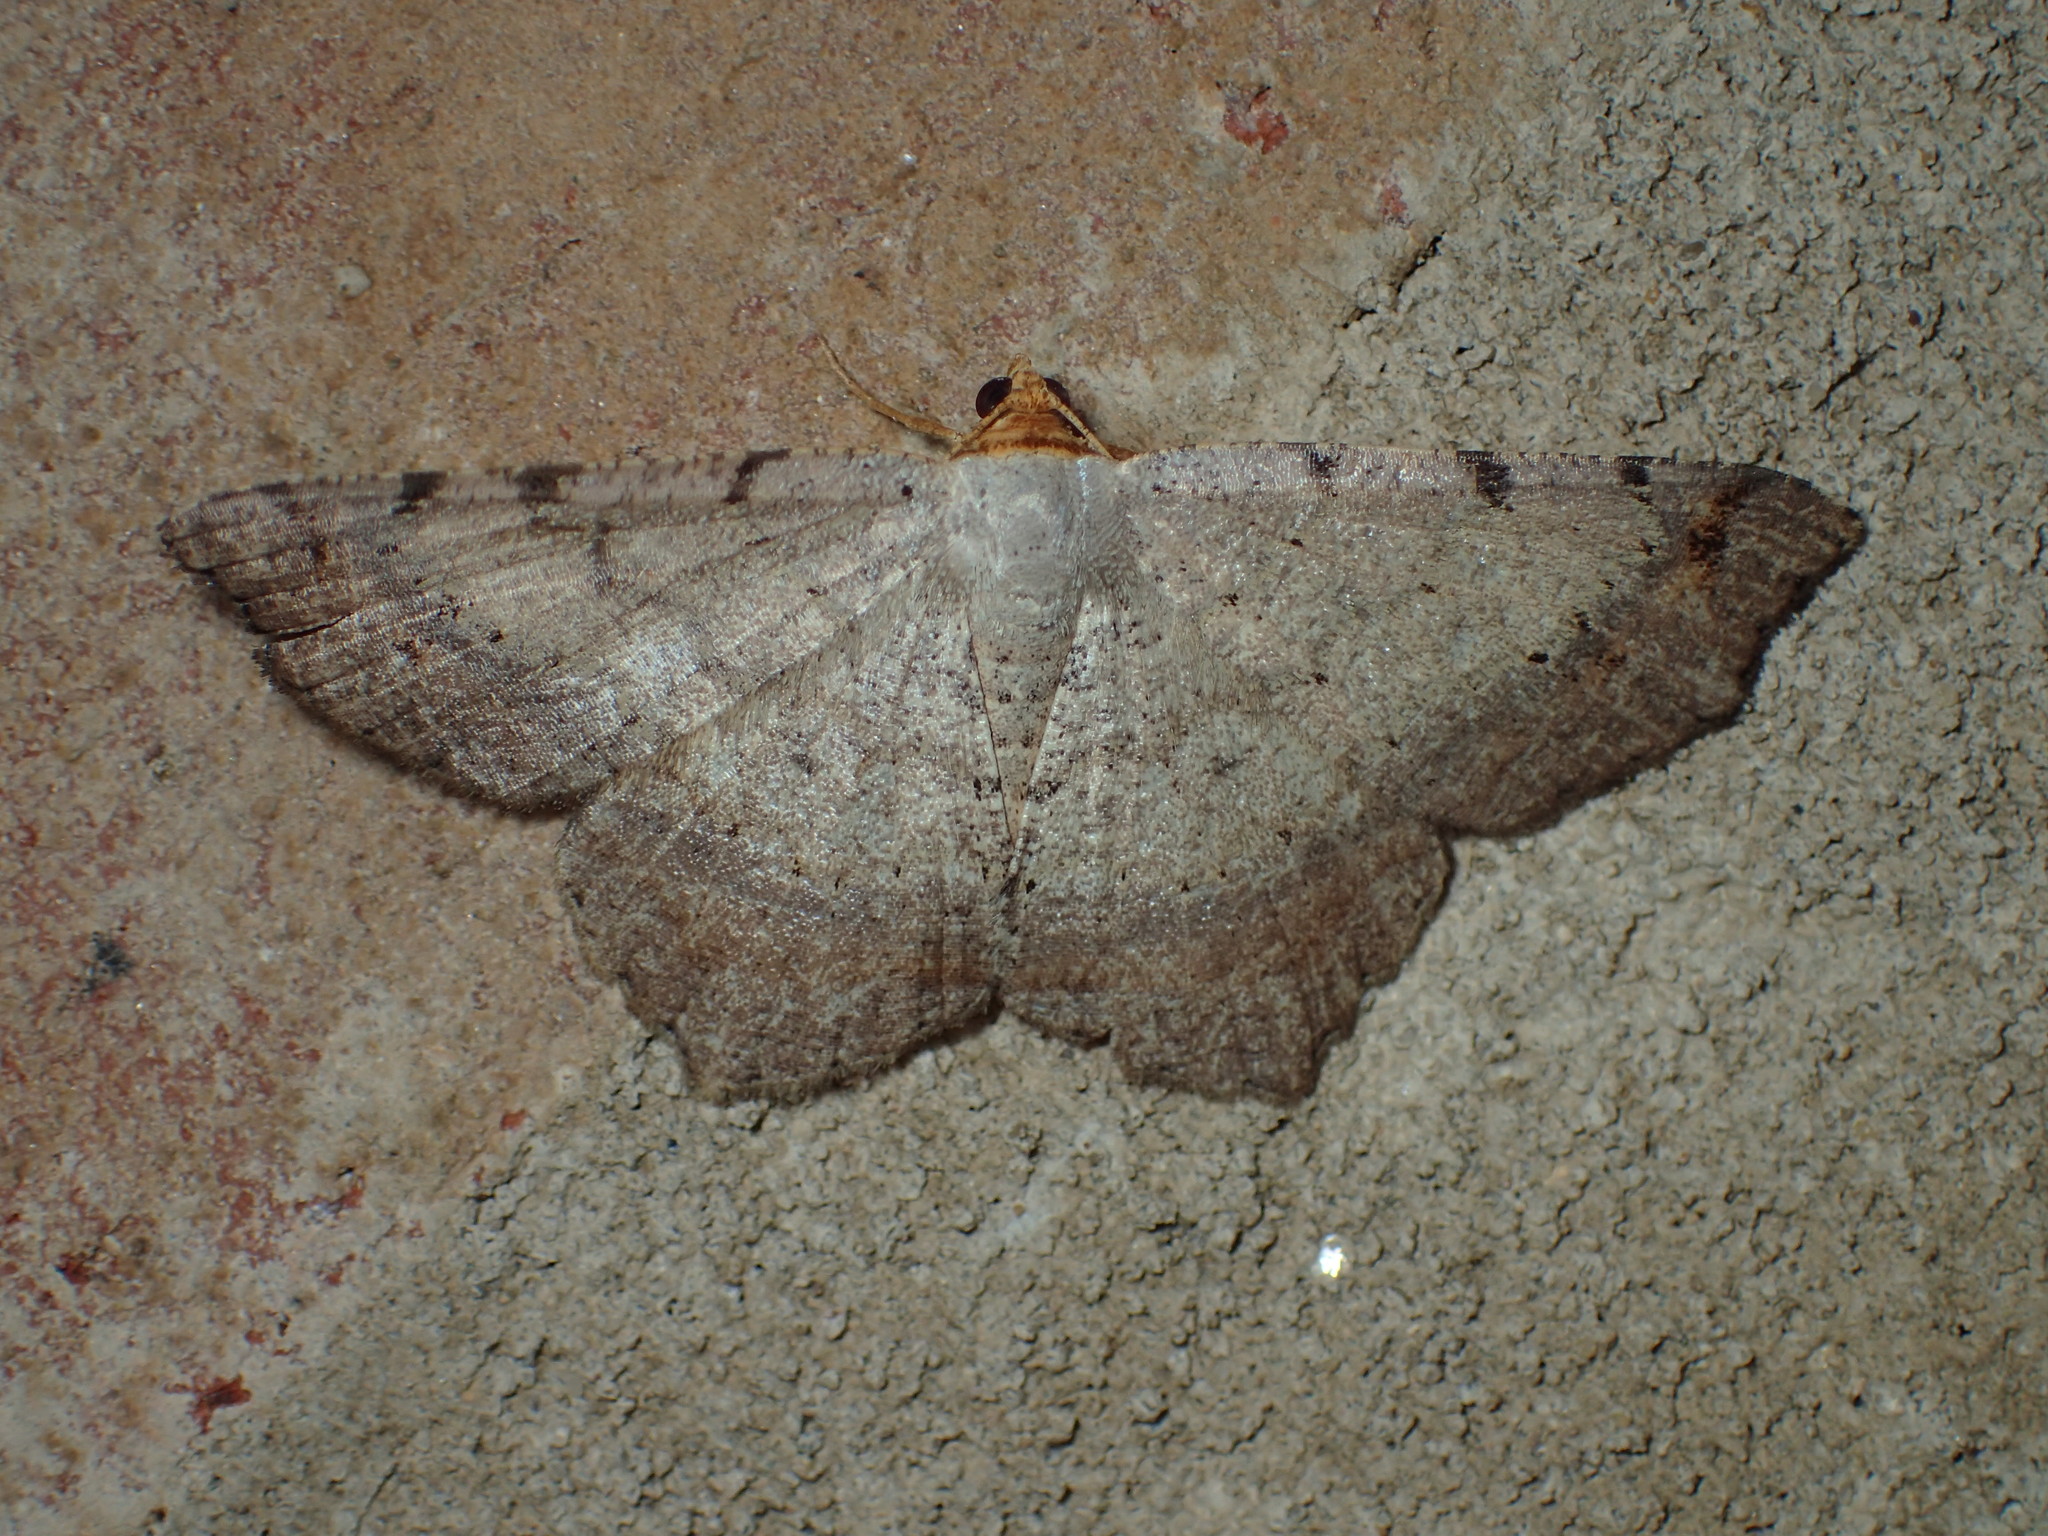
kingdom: Animalia
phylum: Arthropoda
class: Insecta
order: Lepidoptera
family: Geometridae
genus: Macaria
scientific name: Macaria bicolorata
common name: Dingy angle
